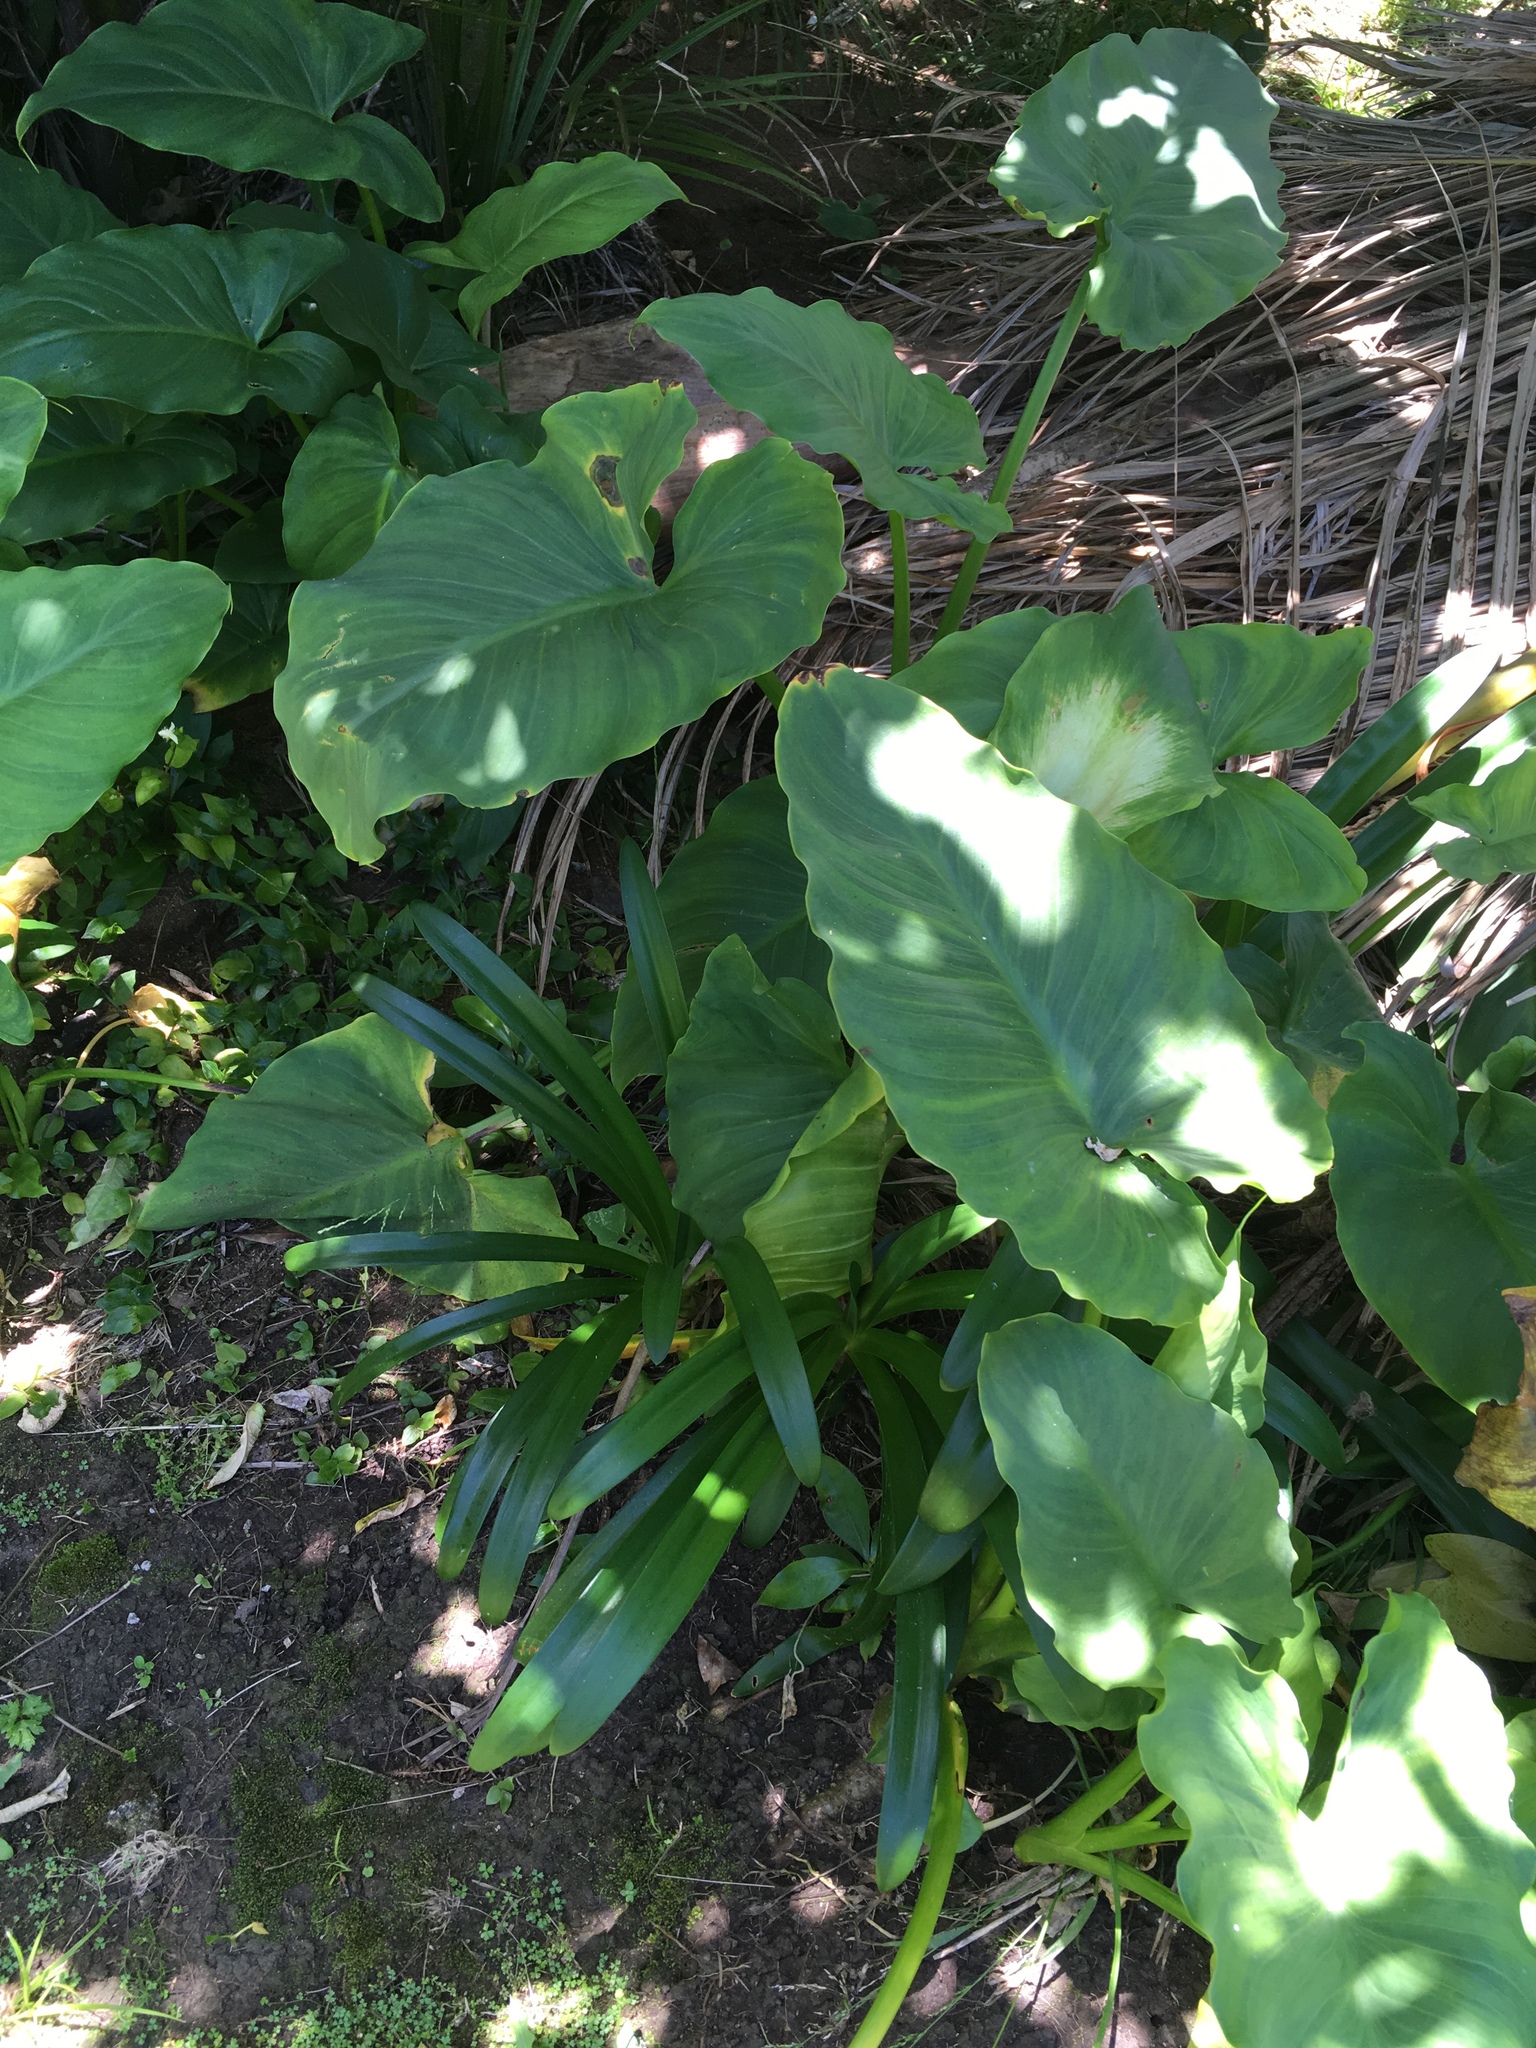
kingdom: Plantae
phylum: Tracheophyta
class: Liliopsida
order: Alismatales
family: Araceae
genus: Zantedeschia
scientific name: Zantedeschia aethiopica
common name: Altar-lily
